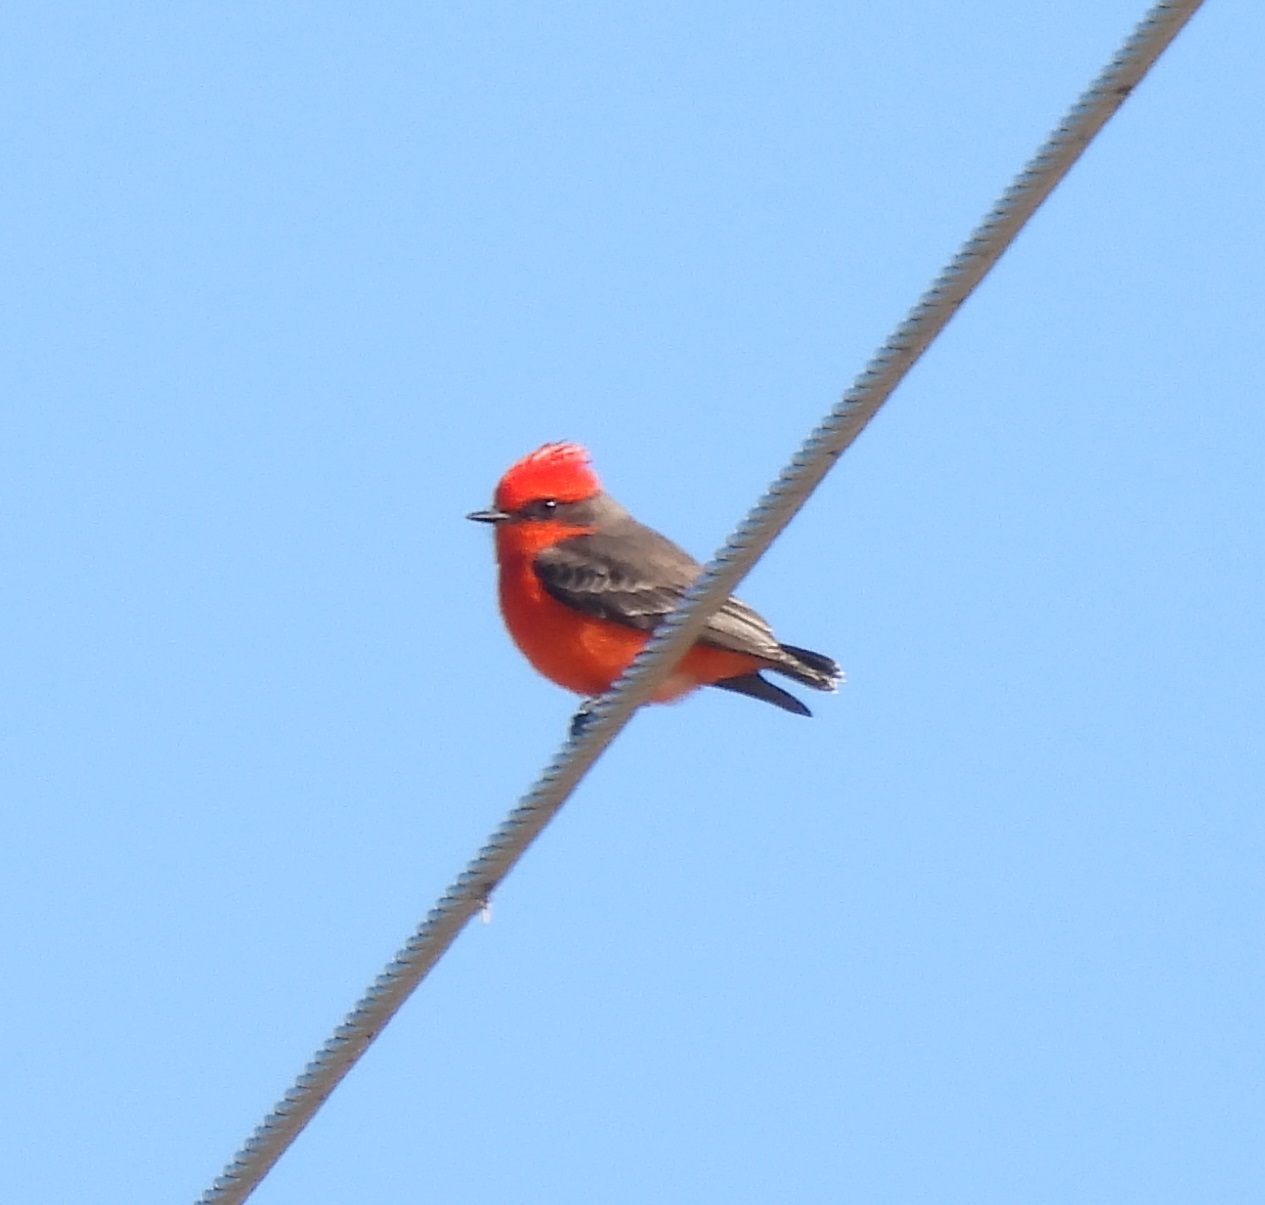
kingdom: Animalia
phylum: Chordata
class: Aves
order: Passeriformes
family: Tyrannidae
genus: Pyrocephalus
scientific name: Pyrocephalus rubinus
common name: Vermilion flycatcher
